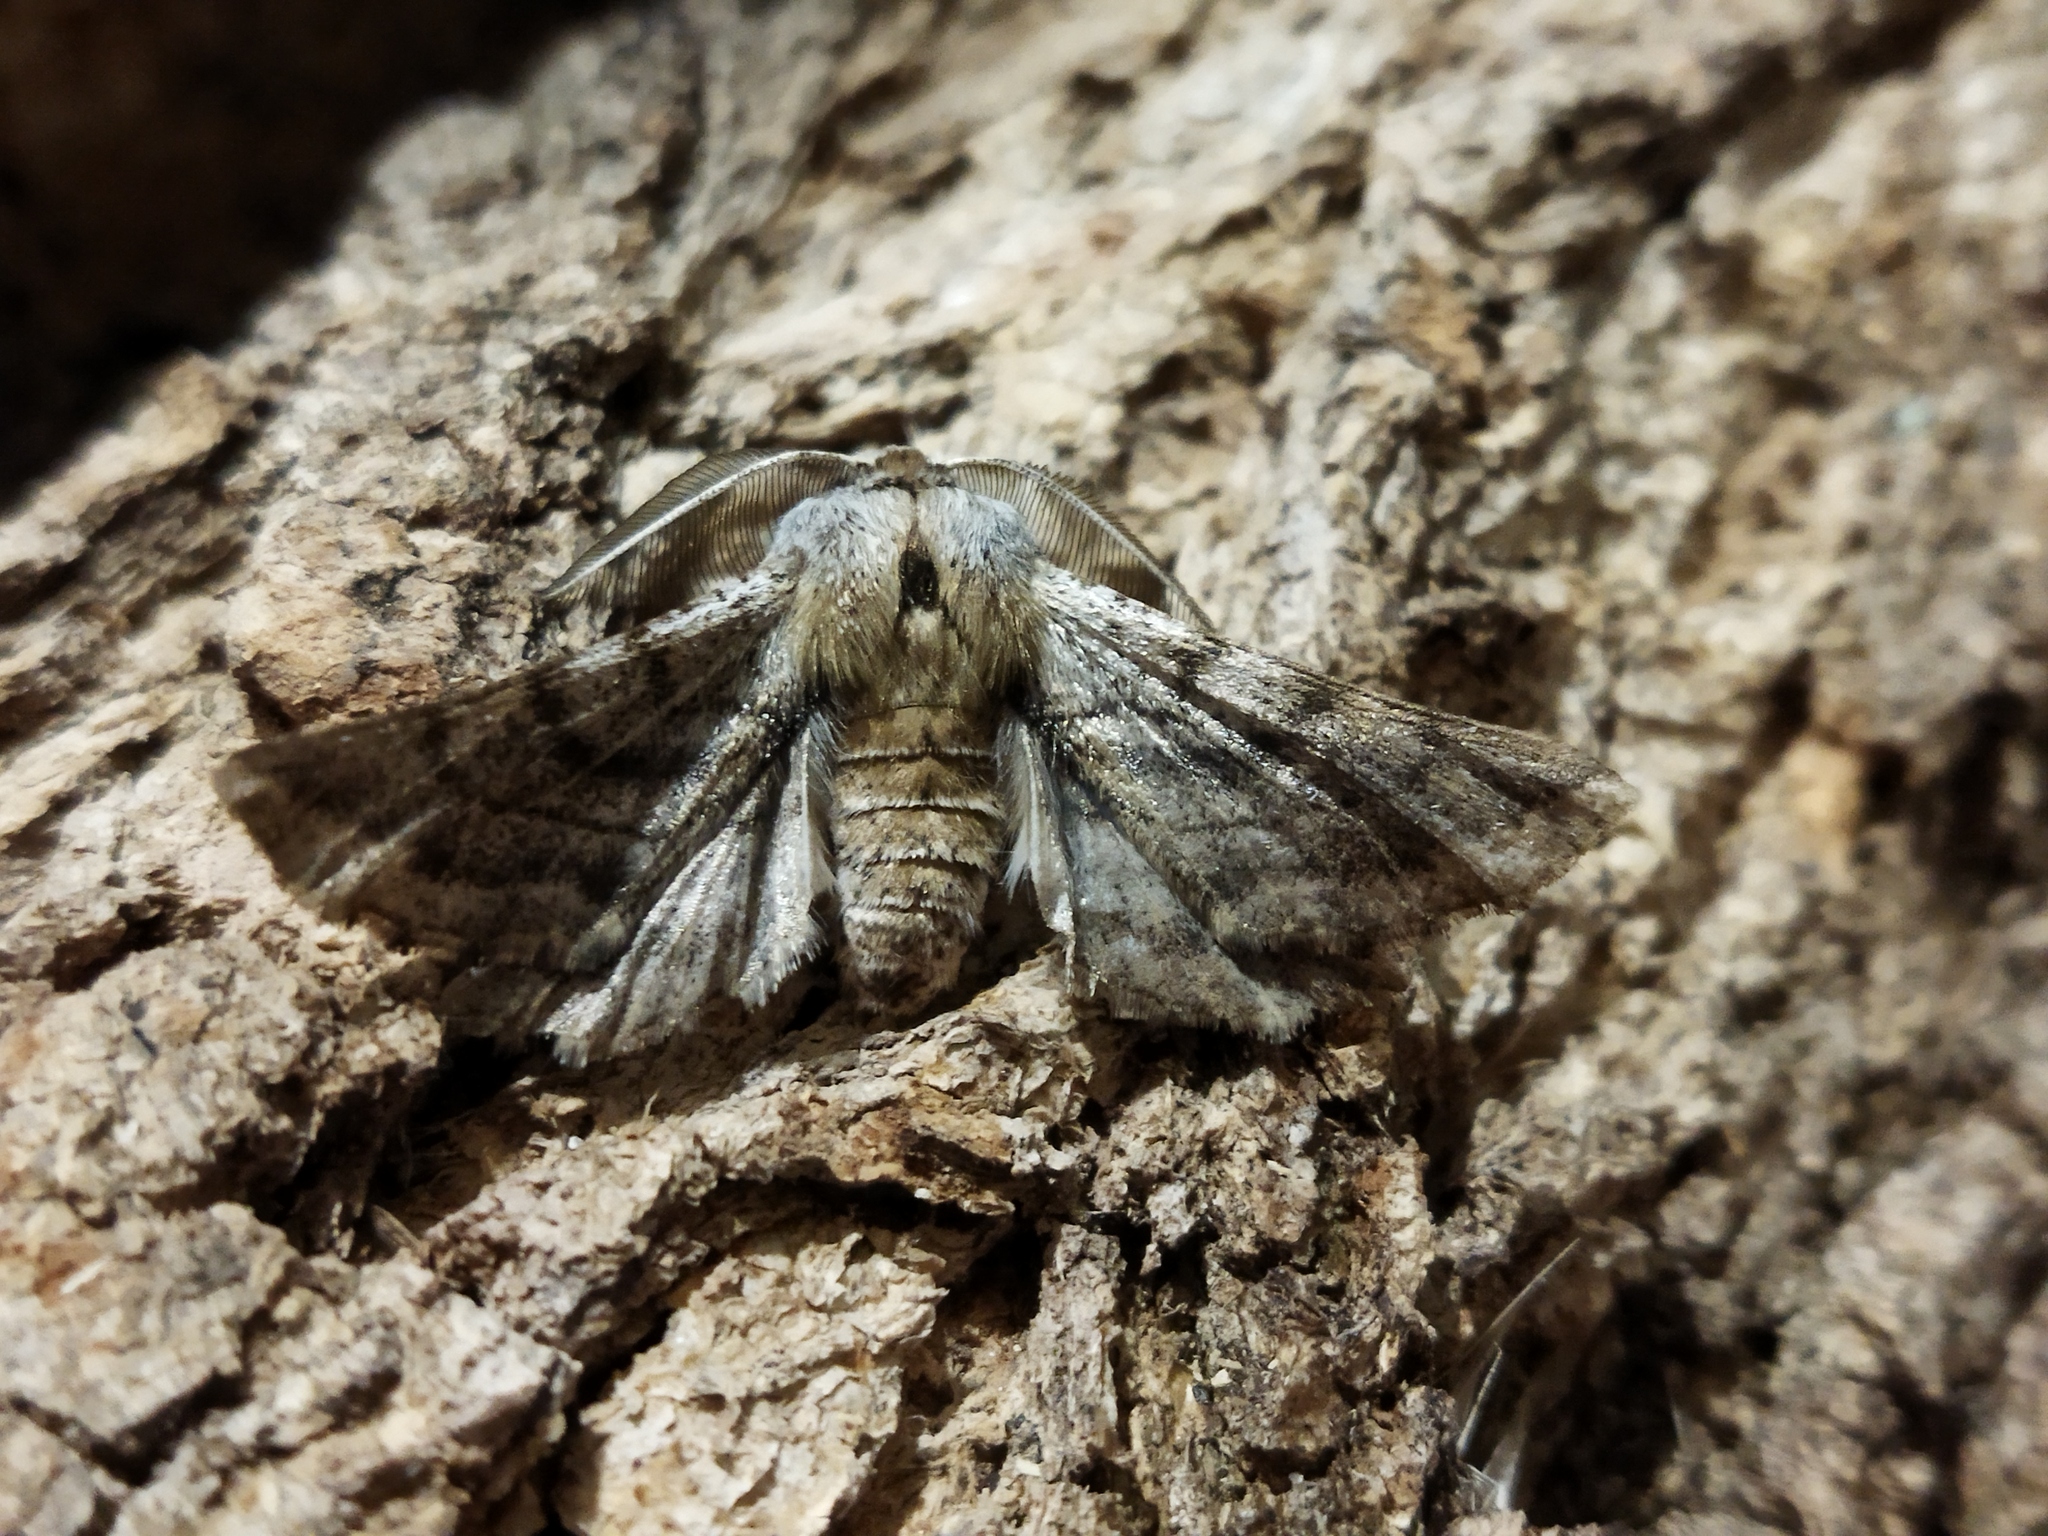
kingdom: Animalia
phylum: Arthropoda
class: Insecta
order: Lepidoptera
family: Geometridae
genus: Apochima
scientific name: Apochima flabellaria
